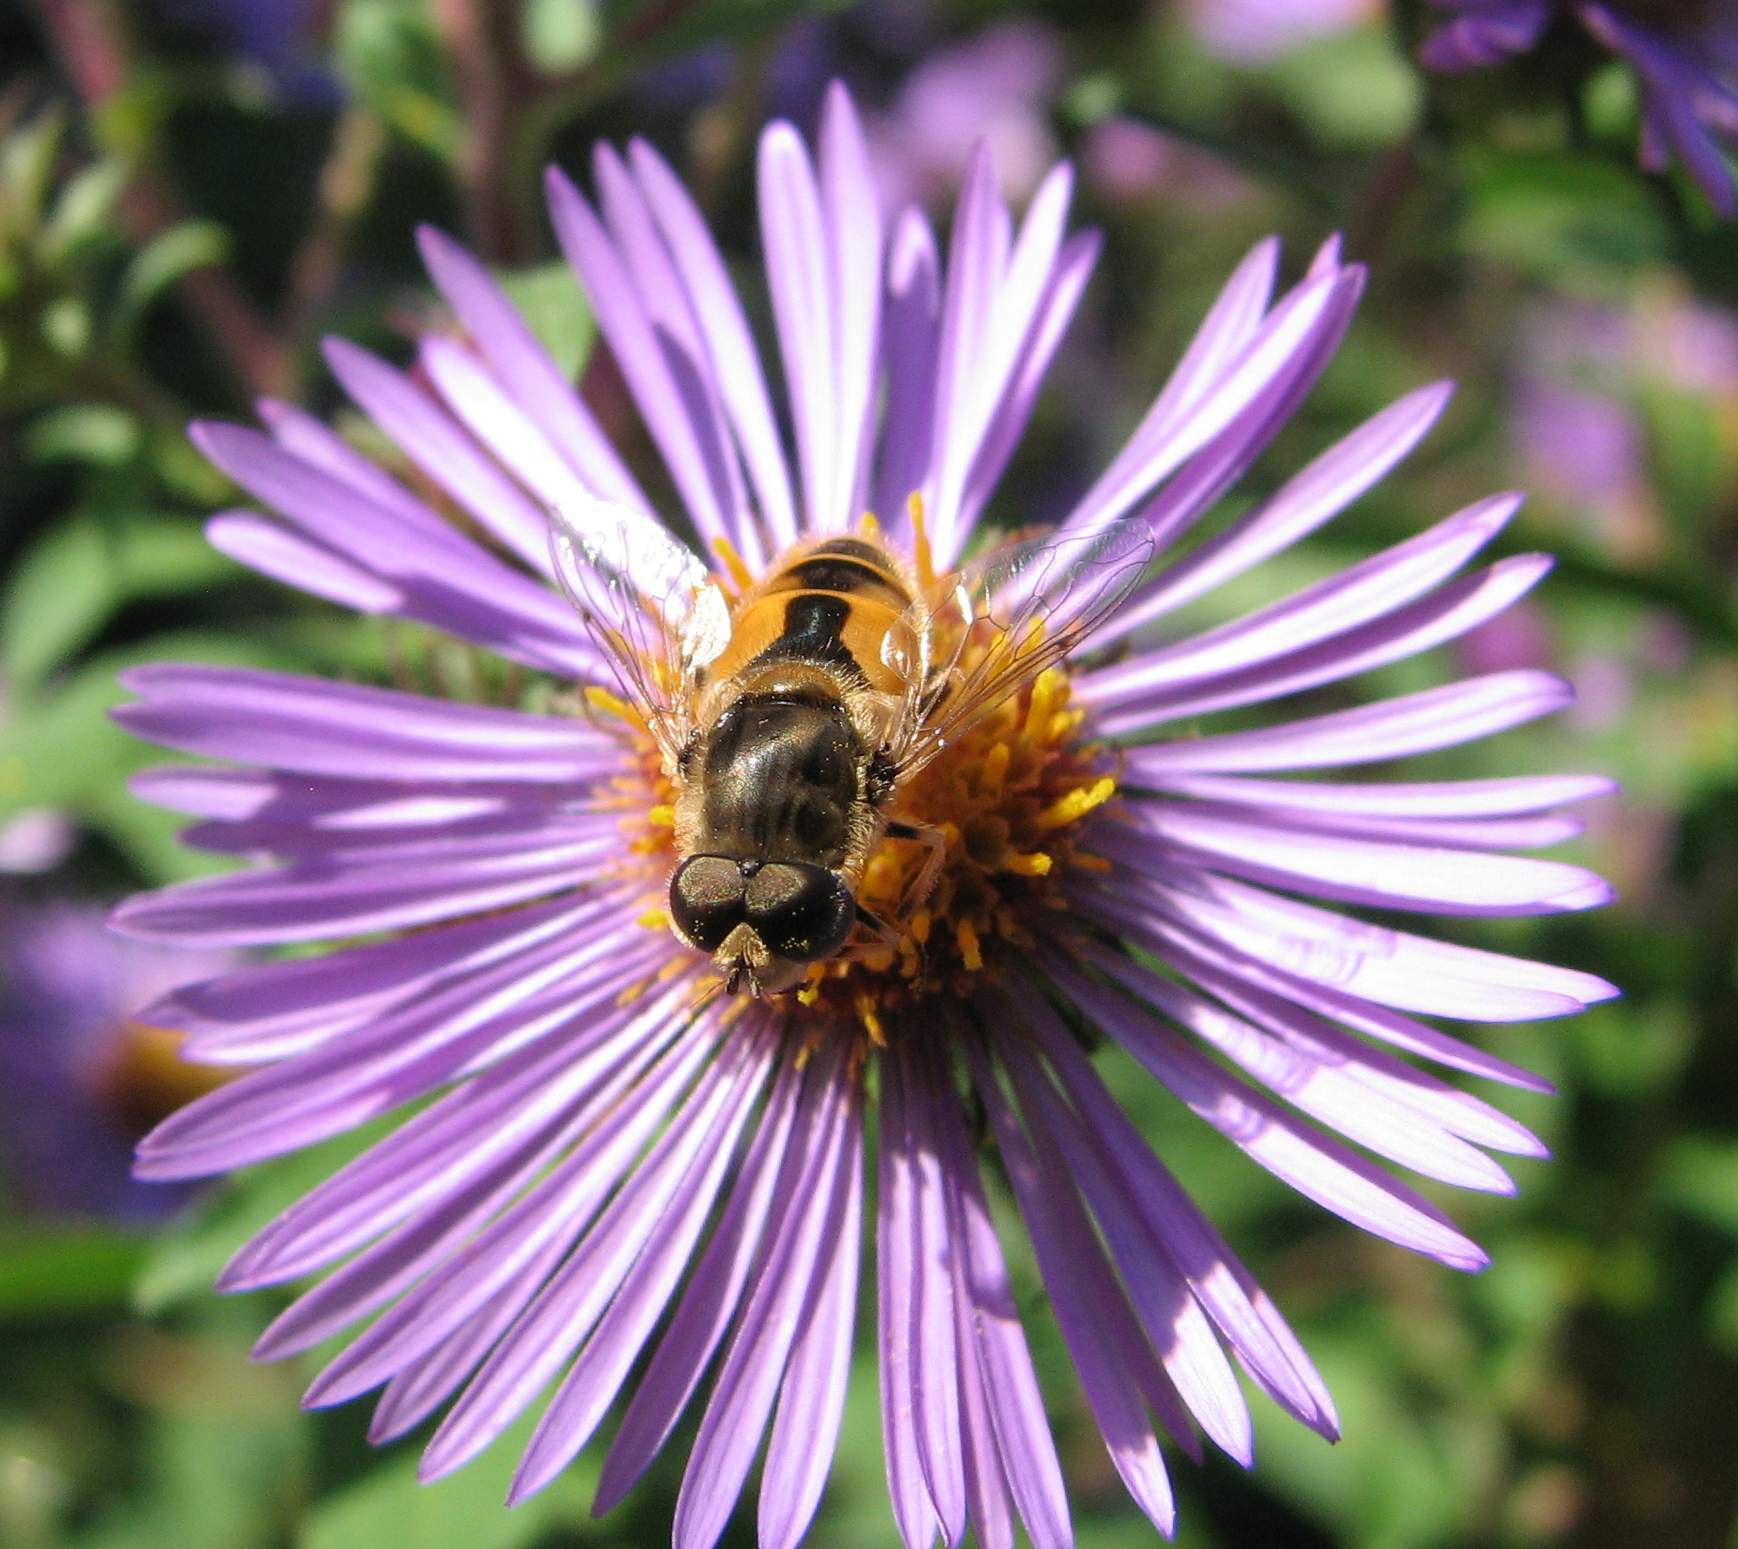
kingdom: Animalia
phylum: Arthropoda
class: Insecta
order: Diptera
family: Syrphidae
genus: Eristalis
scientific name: Eristalis arbustorum
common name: Hover fly
